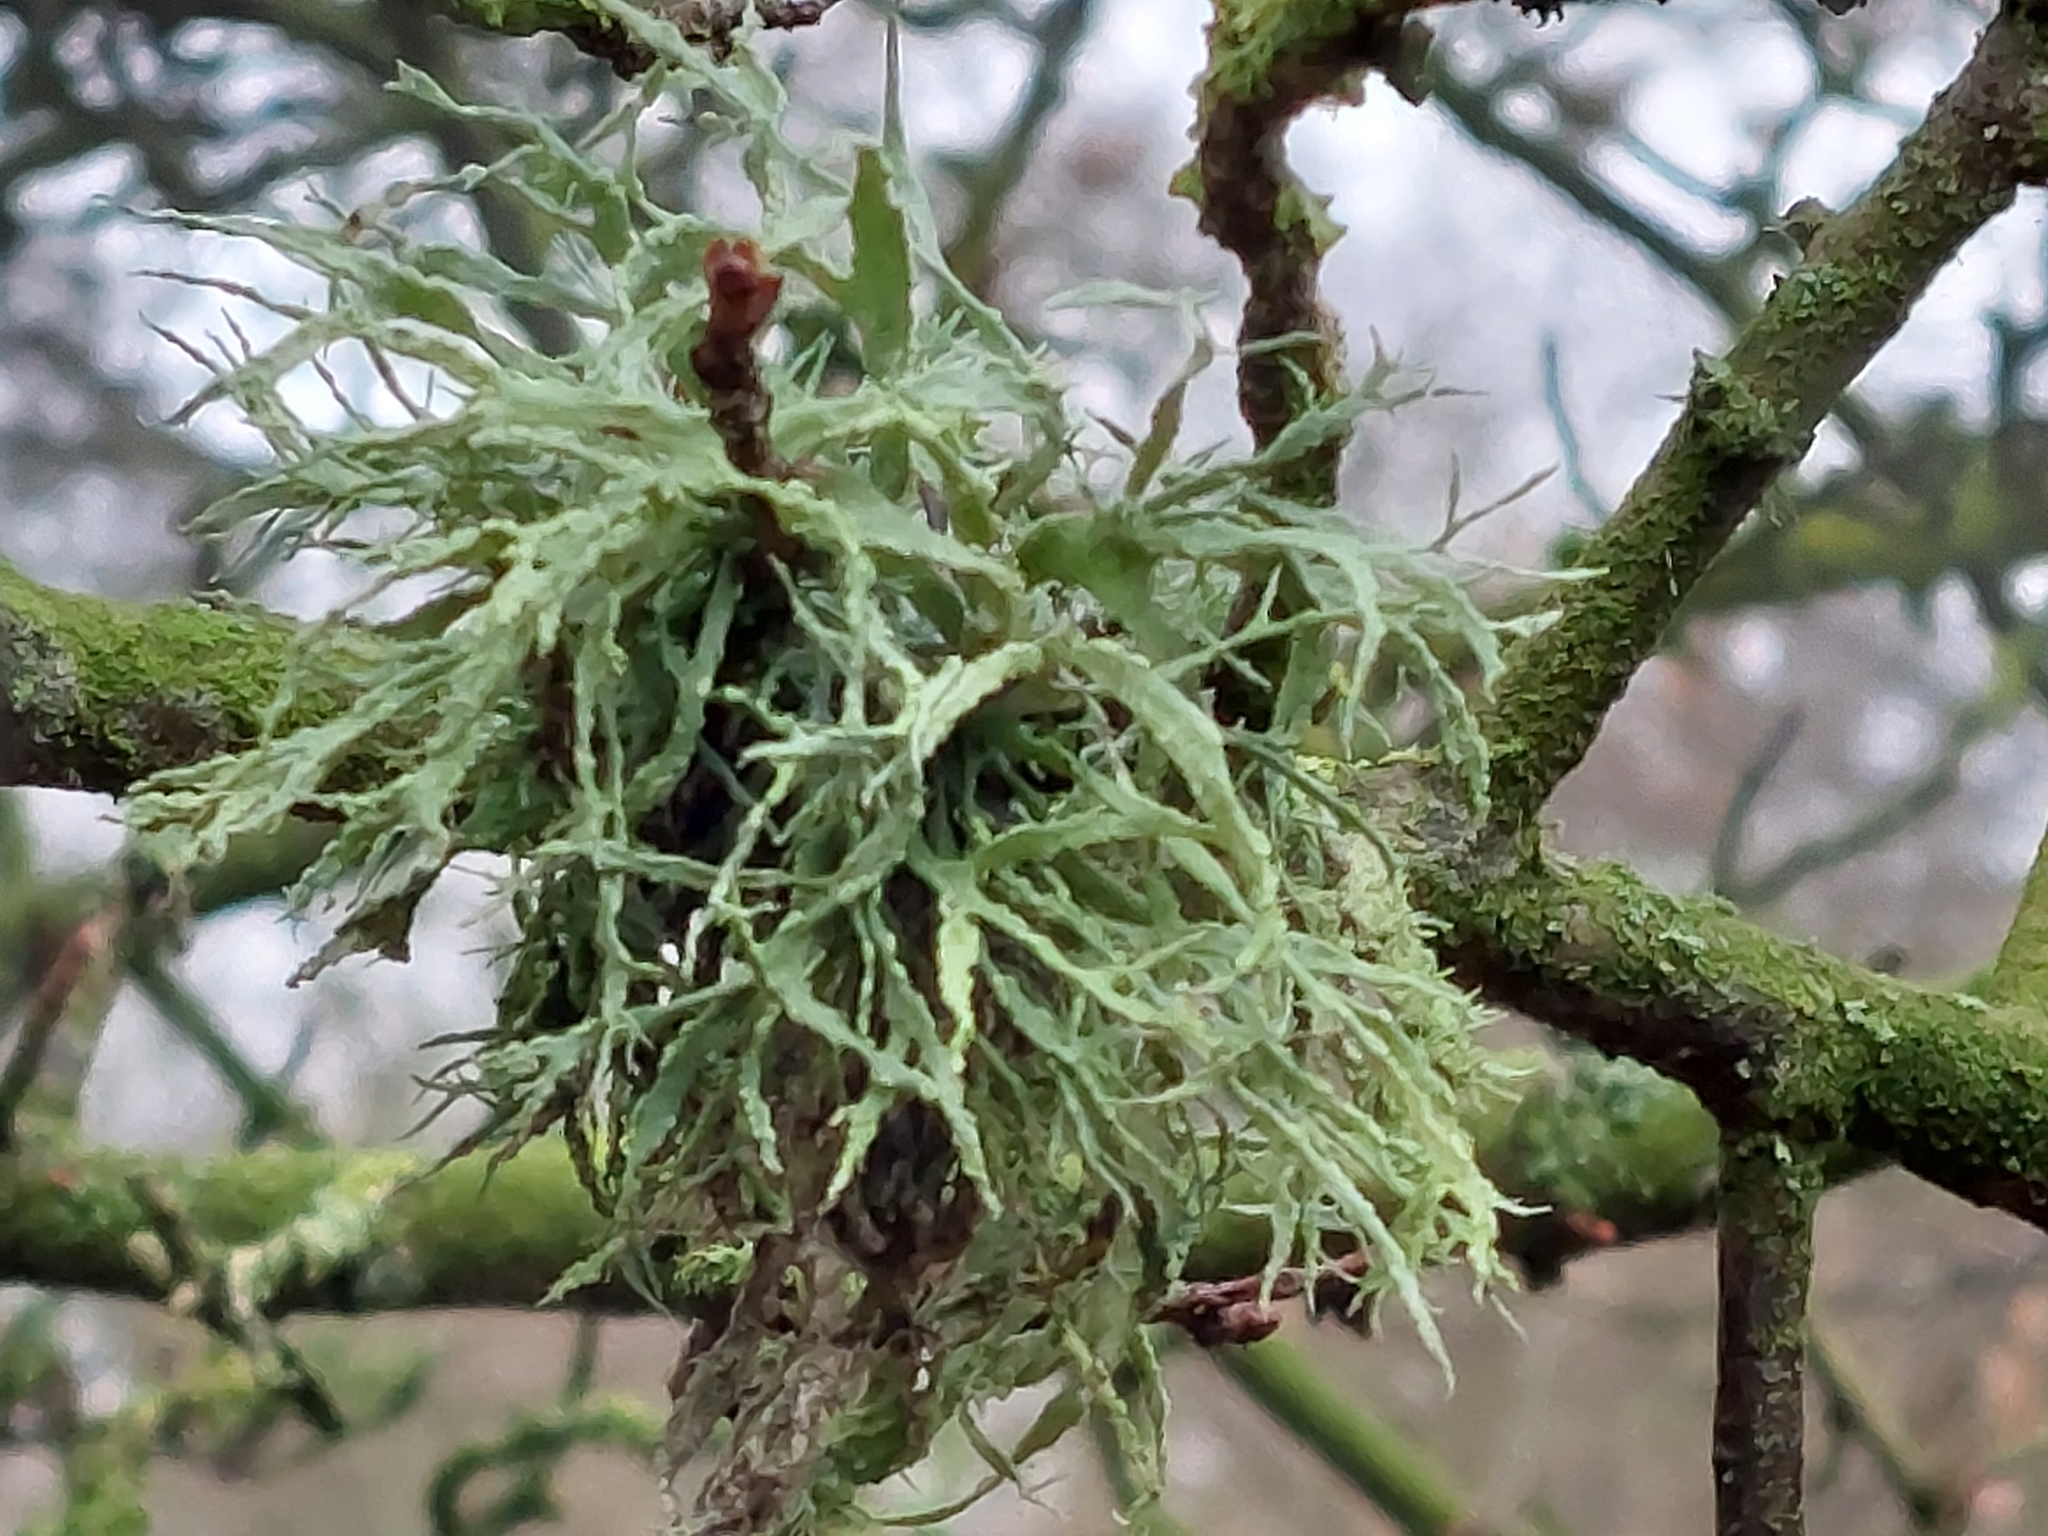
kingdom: Fungi
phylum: Ascomycota
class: Lecanoromycetes
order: Lecanorales
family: Ramalinaceae
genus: Ramalina
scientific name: Ramalina farinacea
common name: Farinose cartilage lichen
